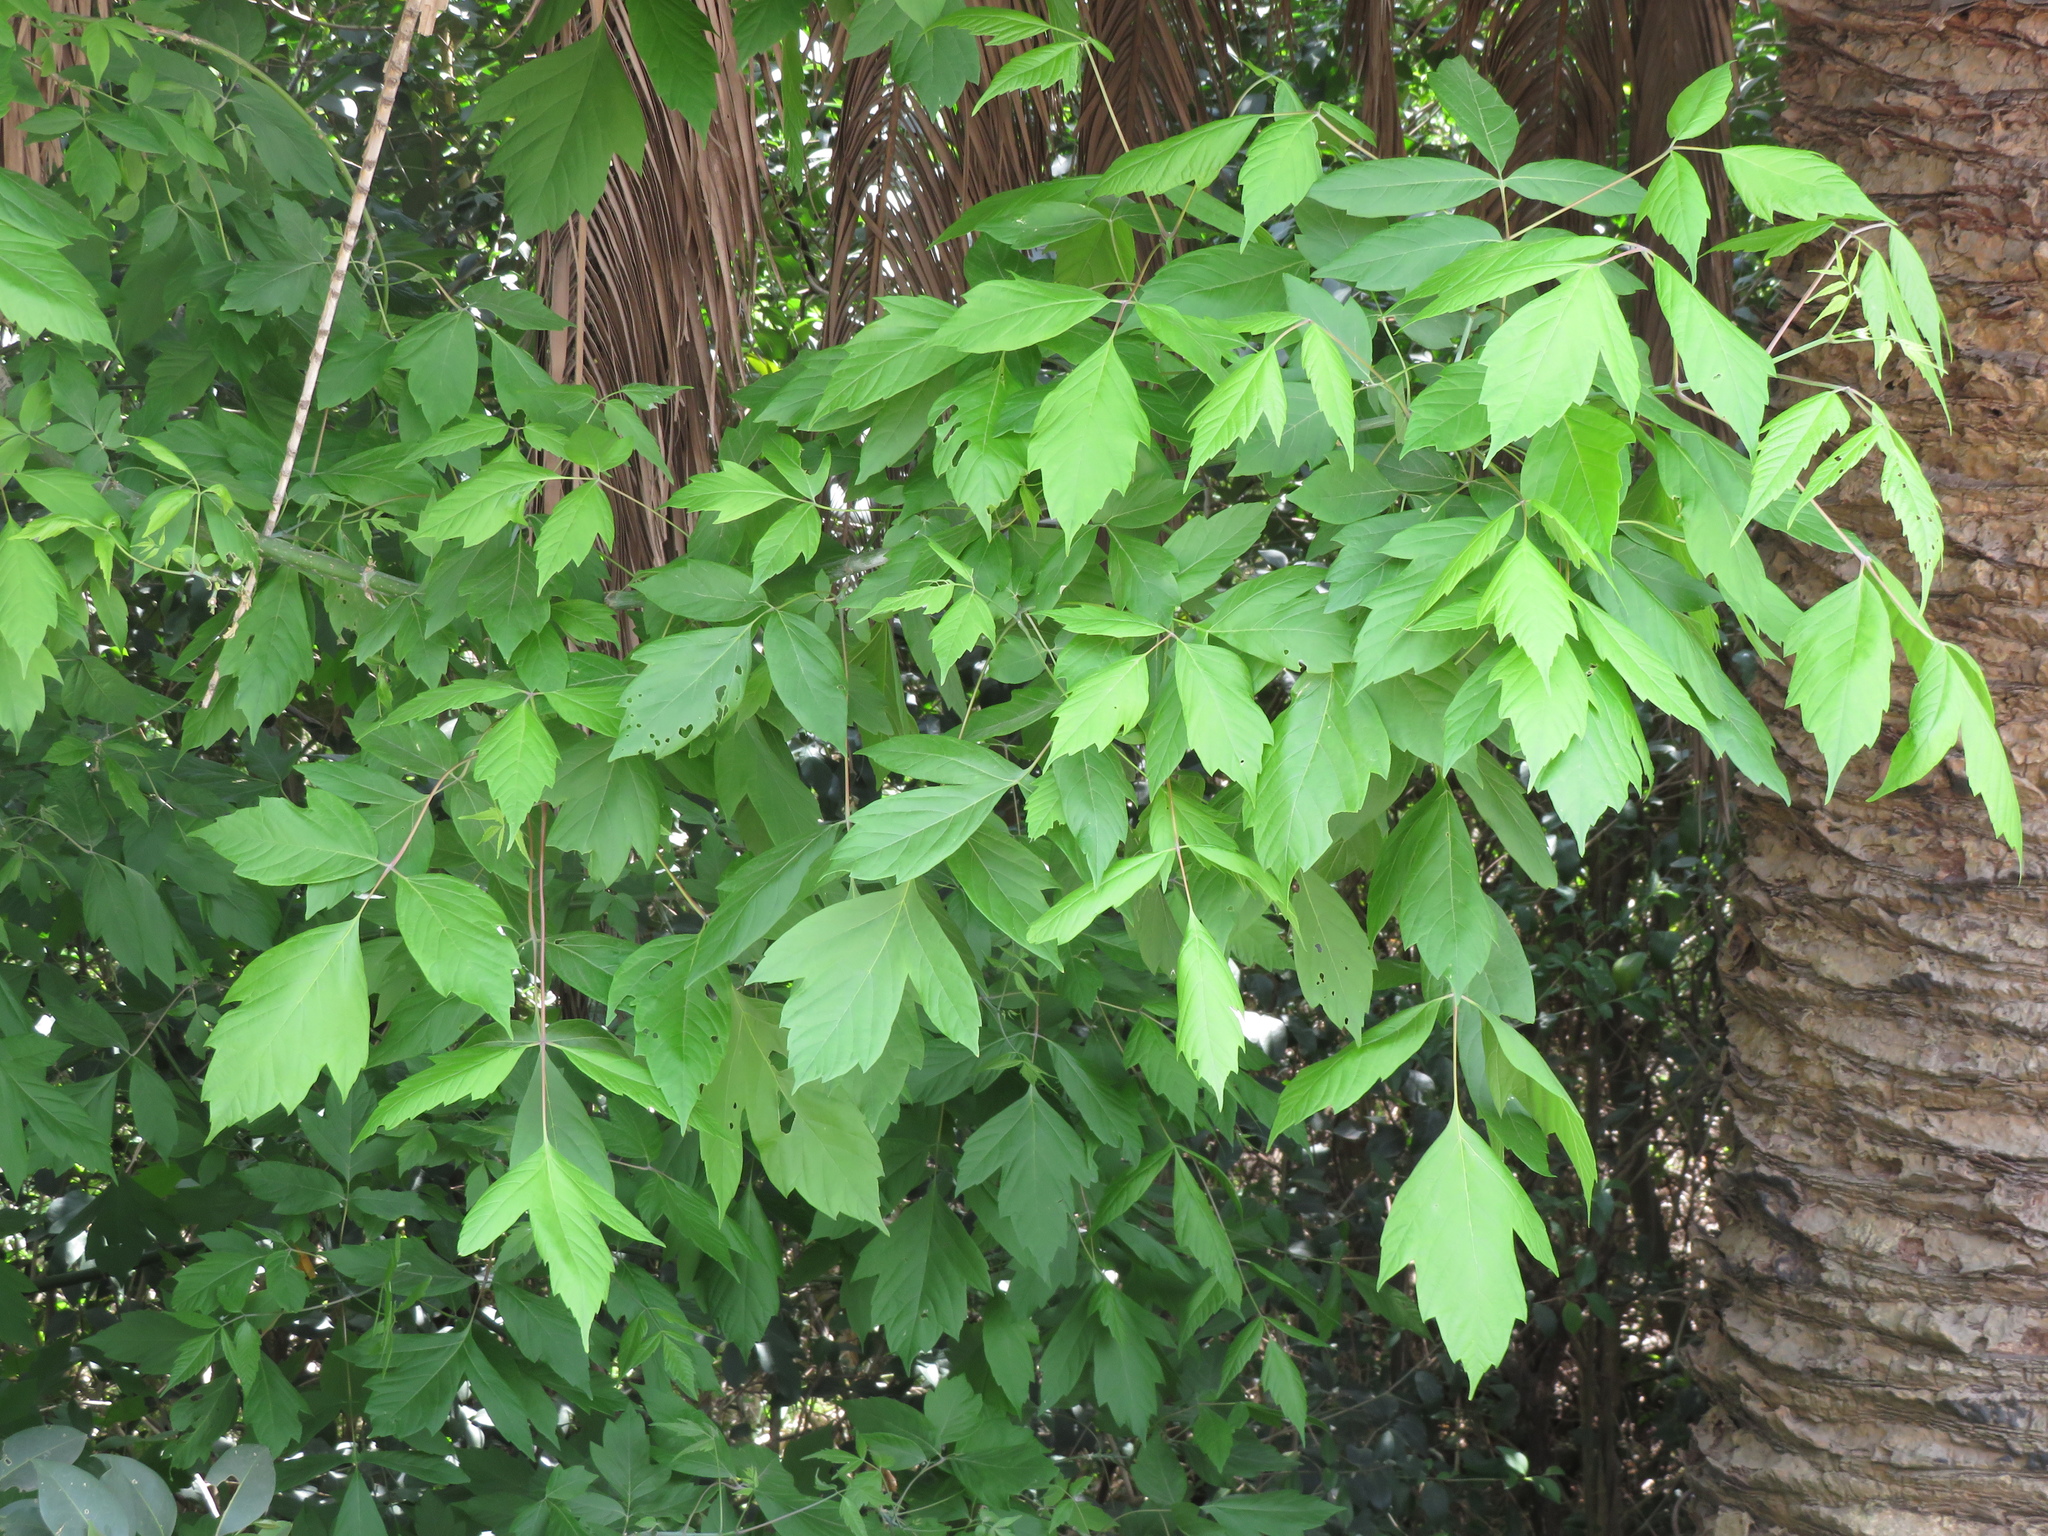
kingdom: Plantae
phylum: Tracheophyta
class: Magnoliopsida
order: Sapindales
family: Sapindaceae
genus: Acer
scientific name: Acer negundo
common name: Ashleaf maple
